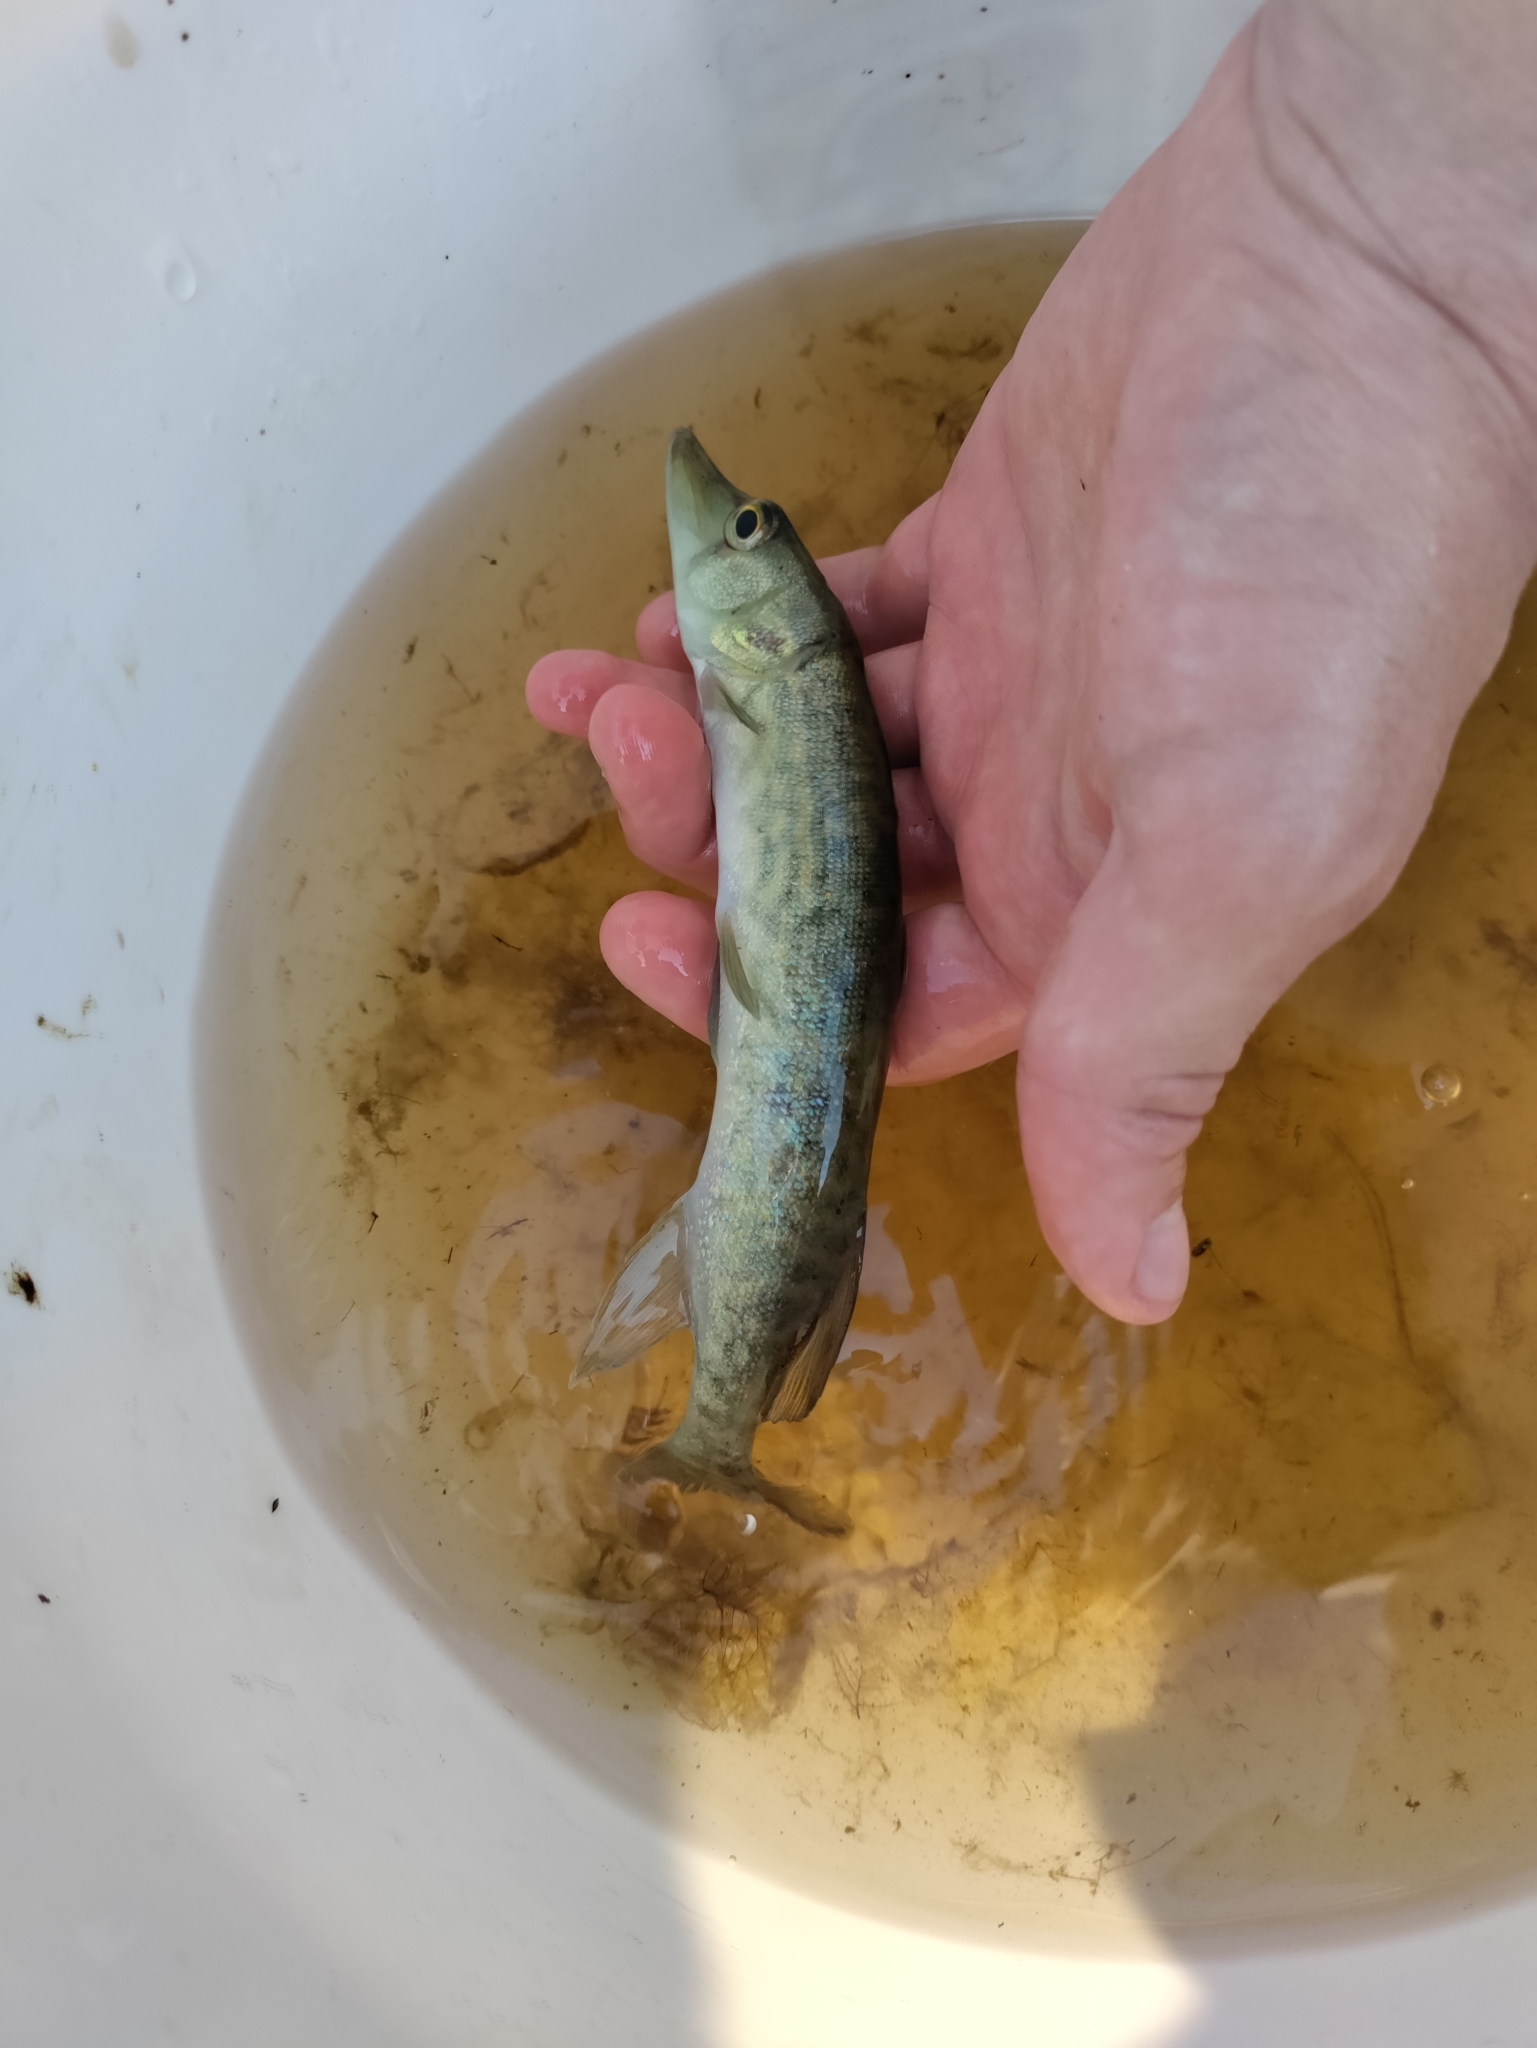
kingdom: Animalia
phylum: Chordata
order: Esociformes
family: Esocidae
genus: Esox
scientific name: Esox niger
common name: Chain pickerel
